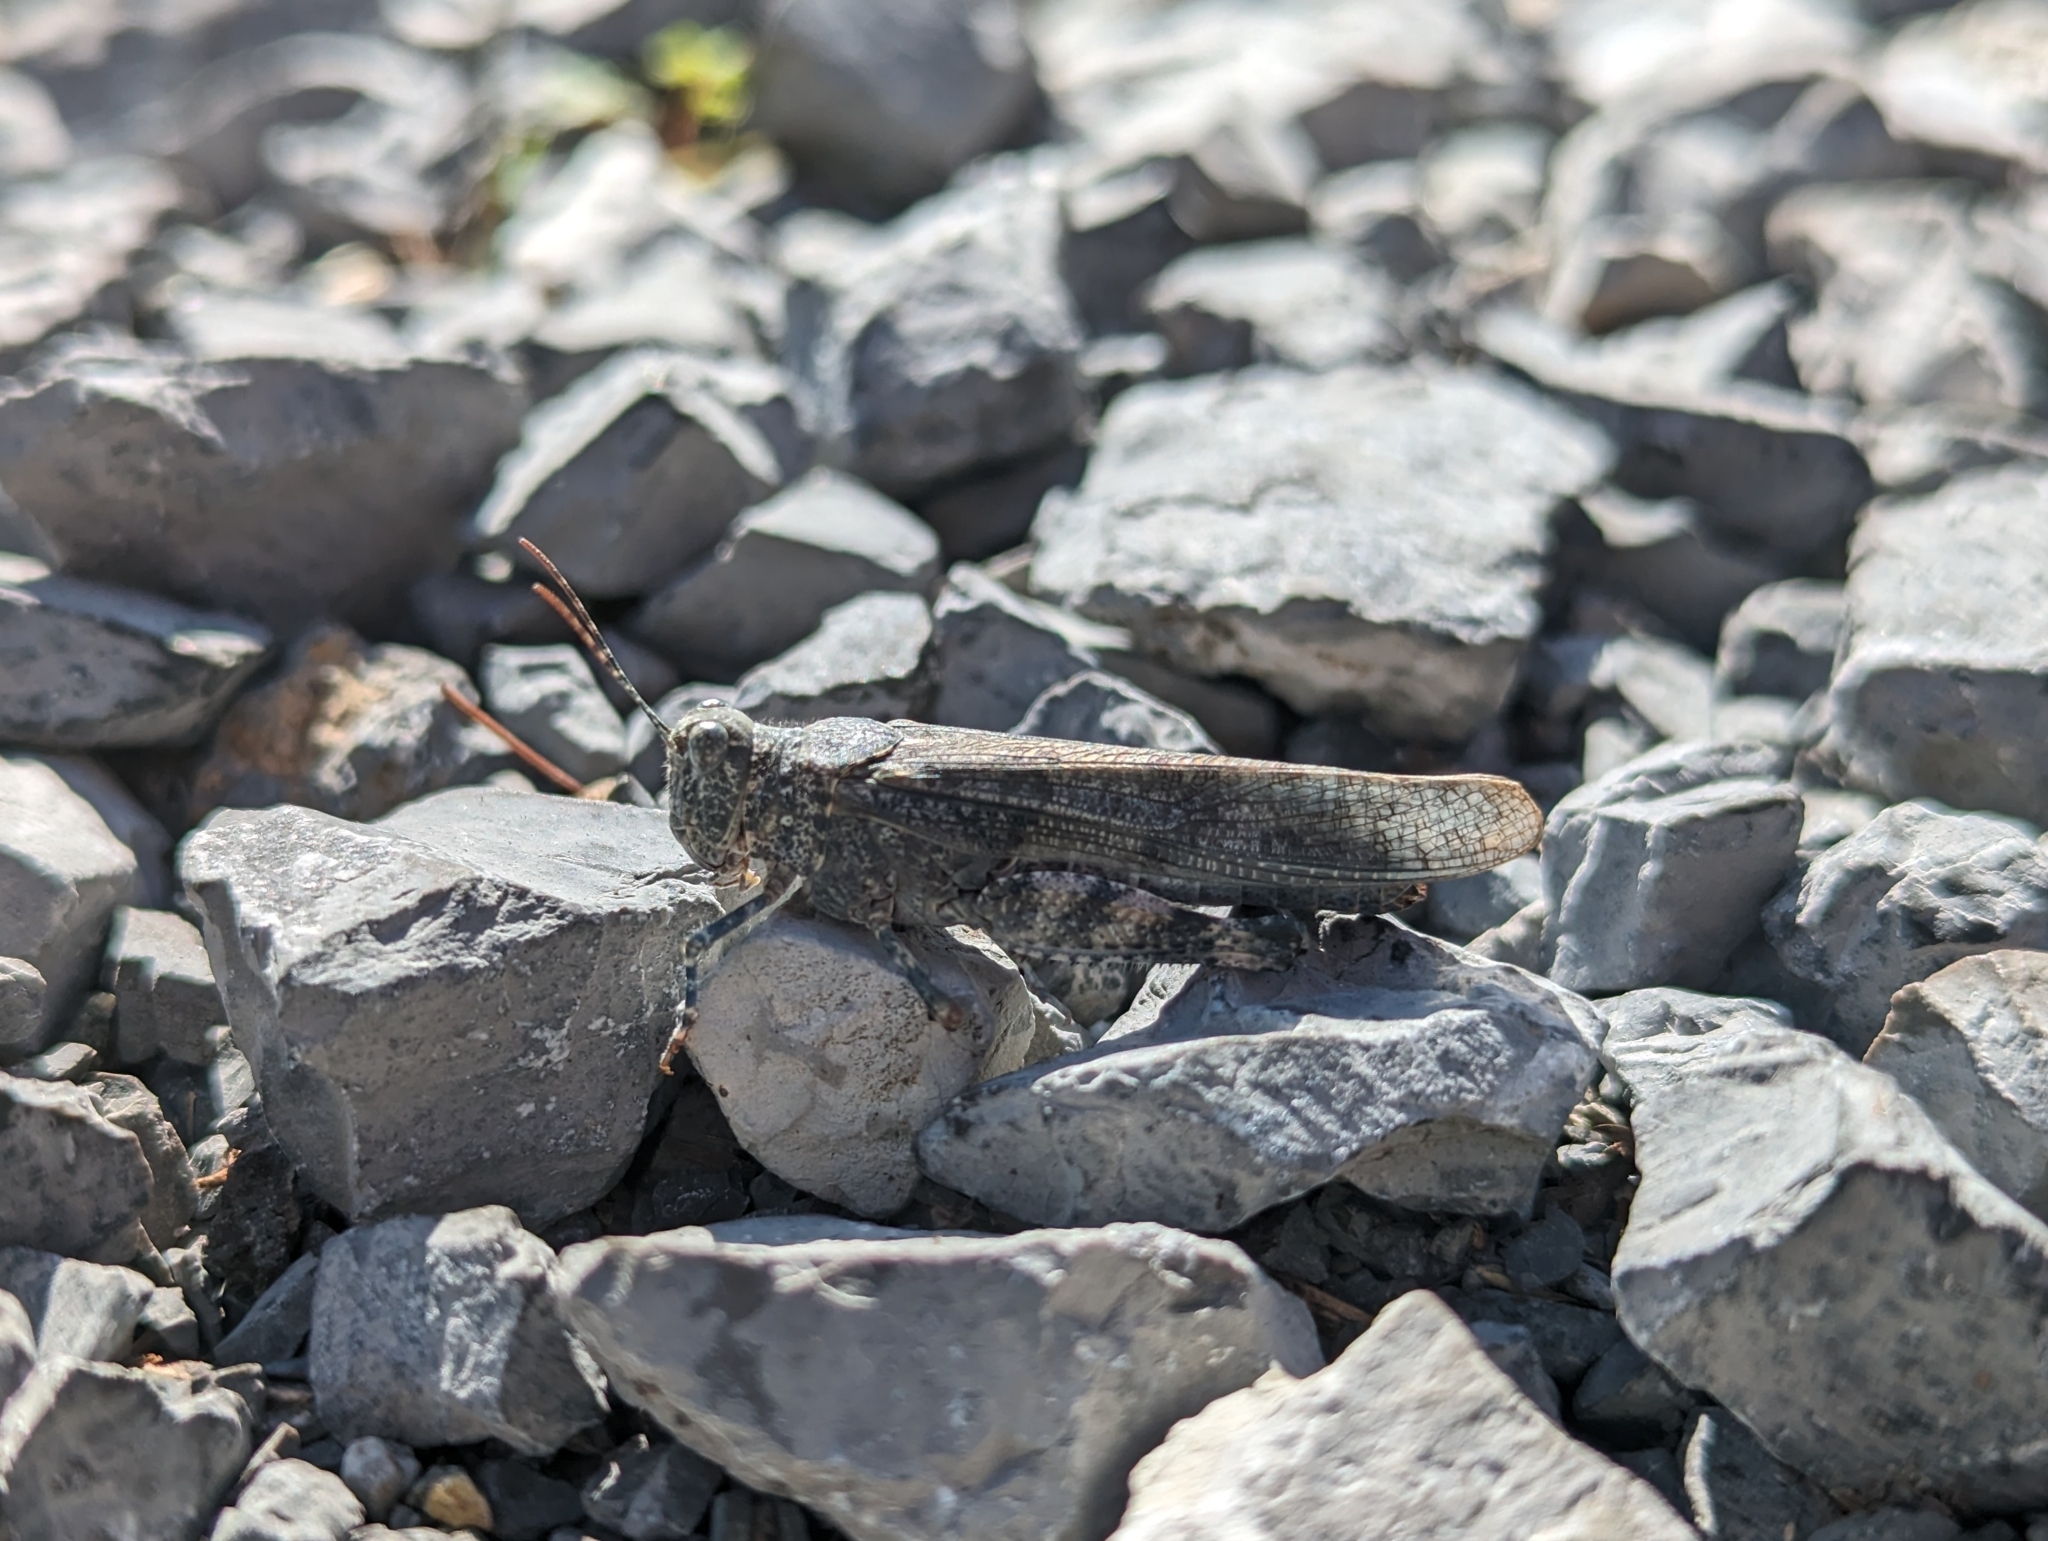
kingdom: Animalia
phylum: Arthropoda
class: Insecta
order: Orthoptera
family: Acrididae
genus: Sphingonotus
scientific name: Sphingonotus caerulans
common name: Blue-winged locust
